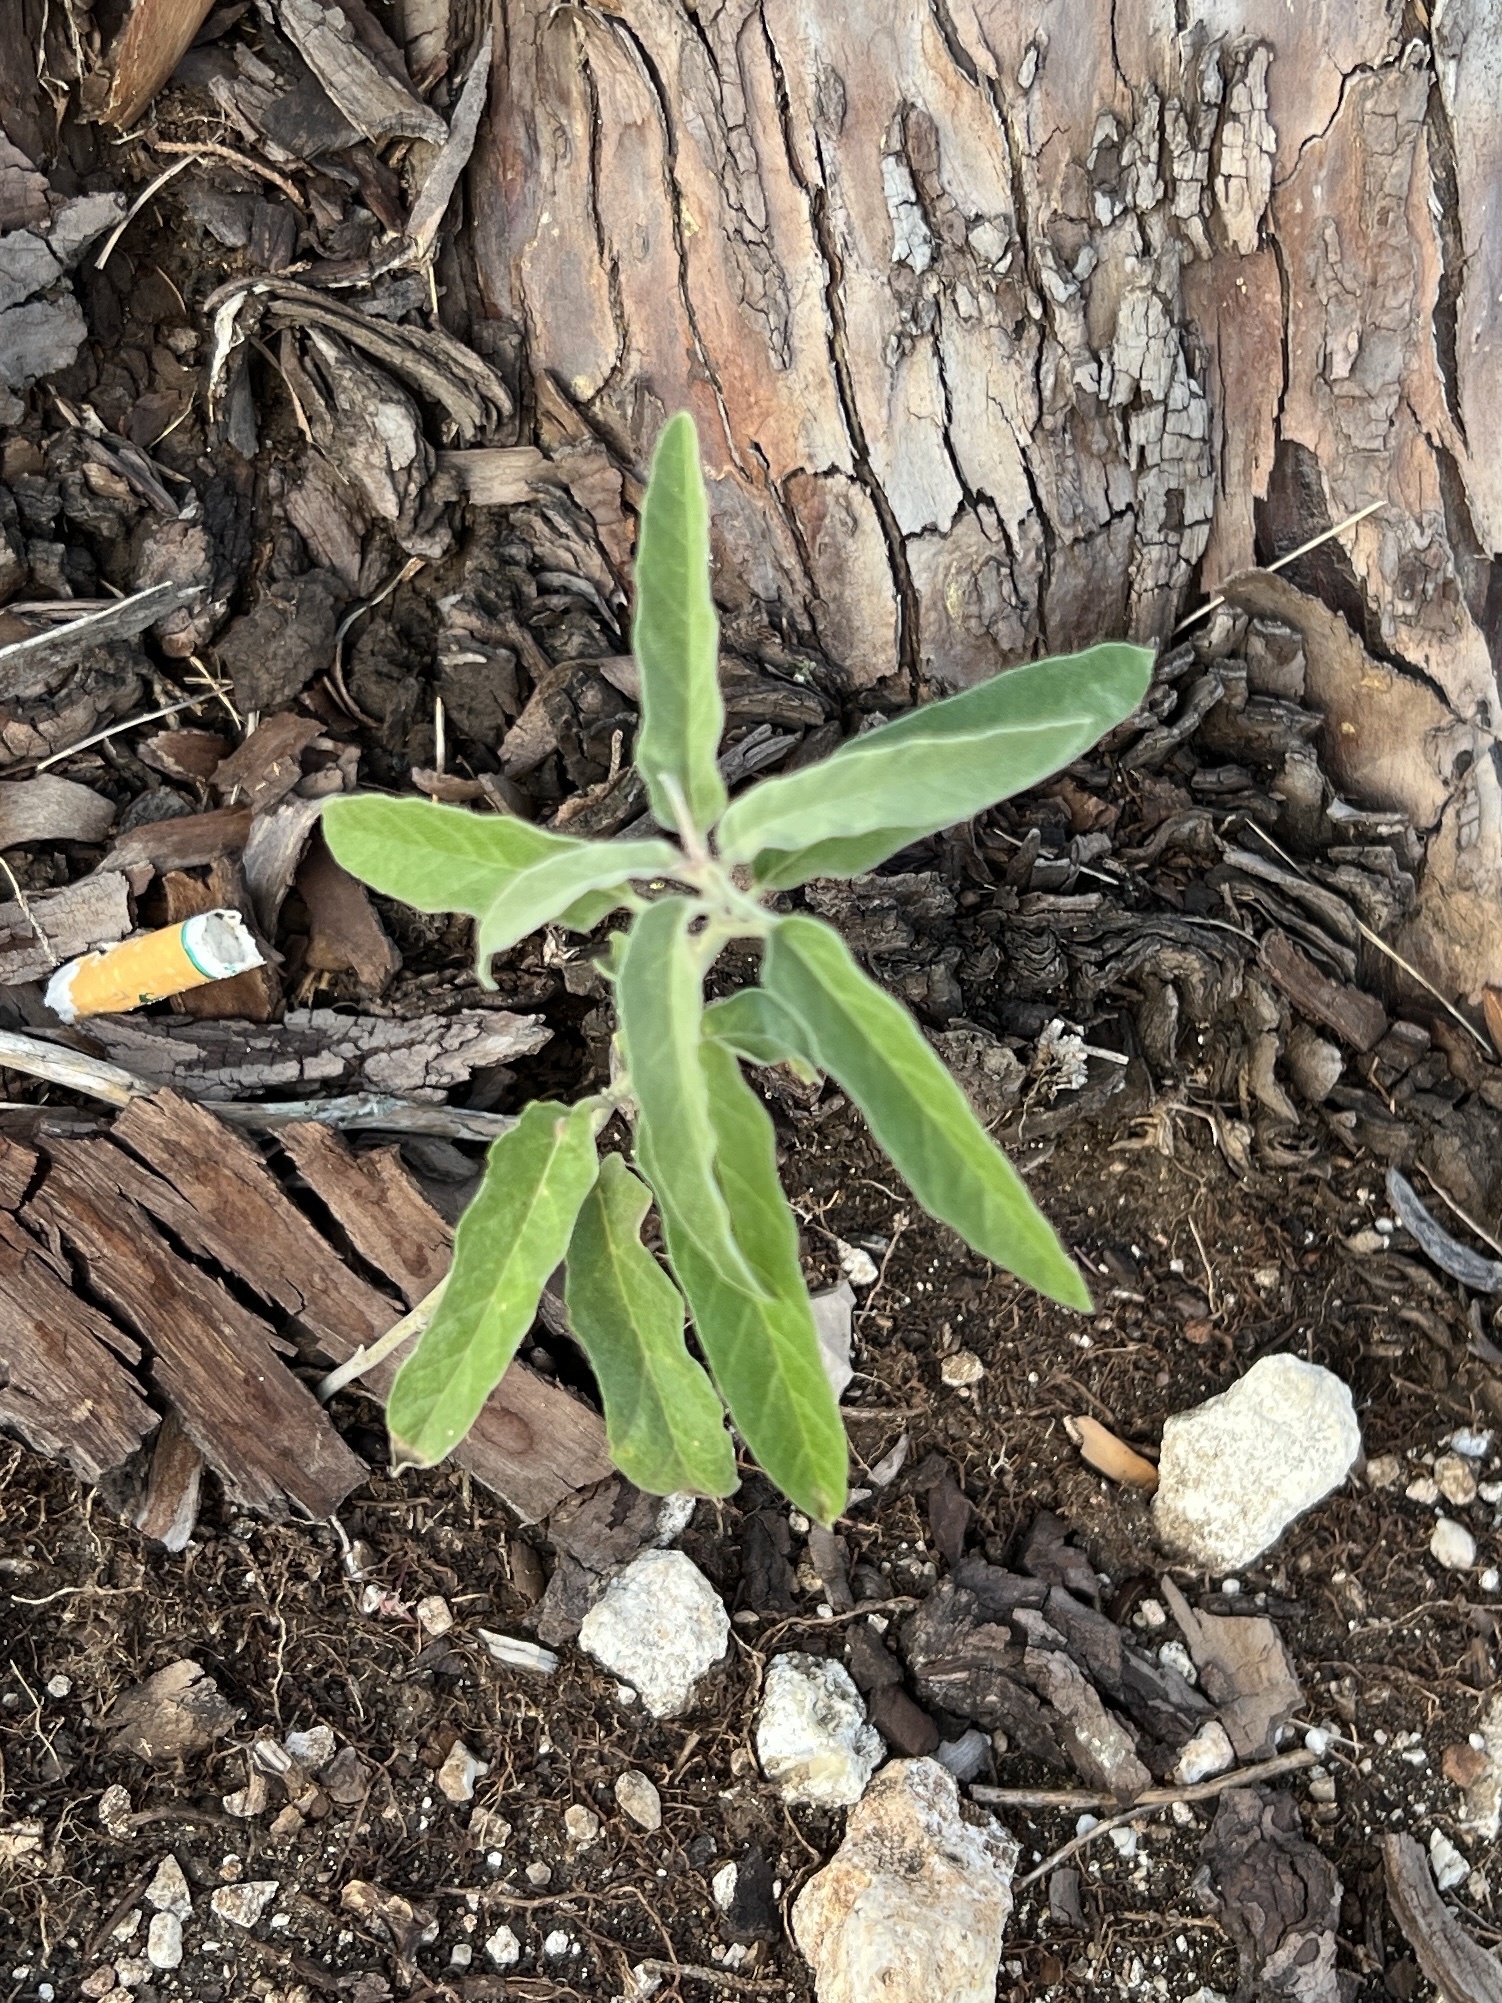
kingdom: Plantae
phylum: Tracheophyta
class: Magnoliopsida
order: Solanales
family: Solanaceae
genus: Solanum
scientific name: Solanum elaeagnifolium
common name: Silverleaf nightshade
